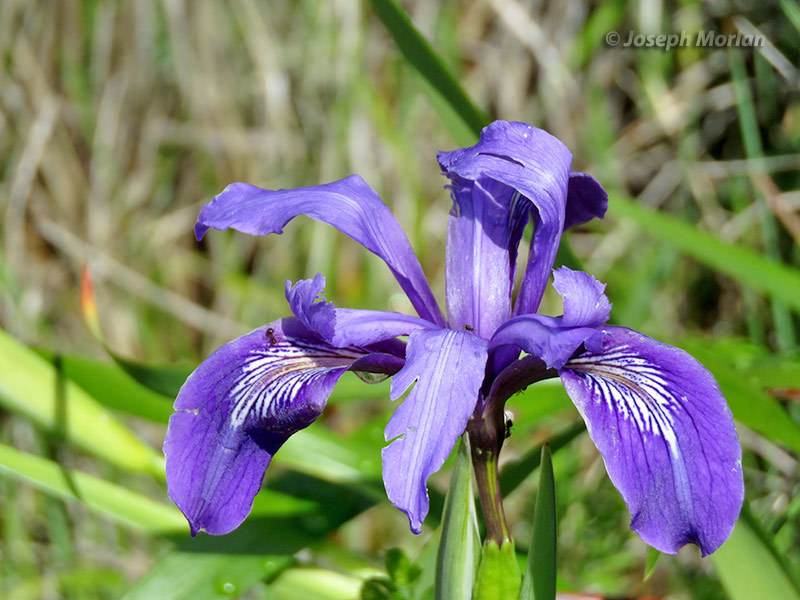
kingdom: Plantae
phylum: Tracheophyta
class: Liliopsida
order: Asparagales
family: Iridaceae
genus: Iris
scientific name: Iris douglasiana
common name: Marin iris
